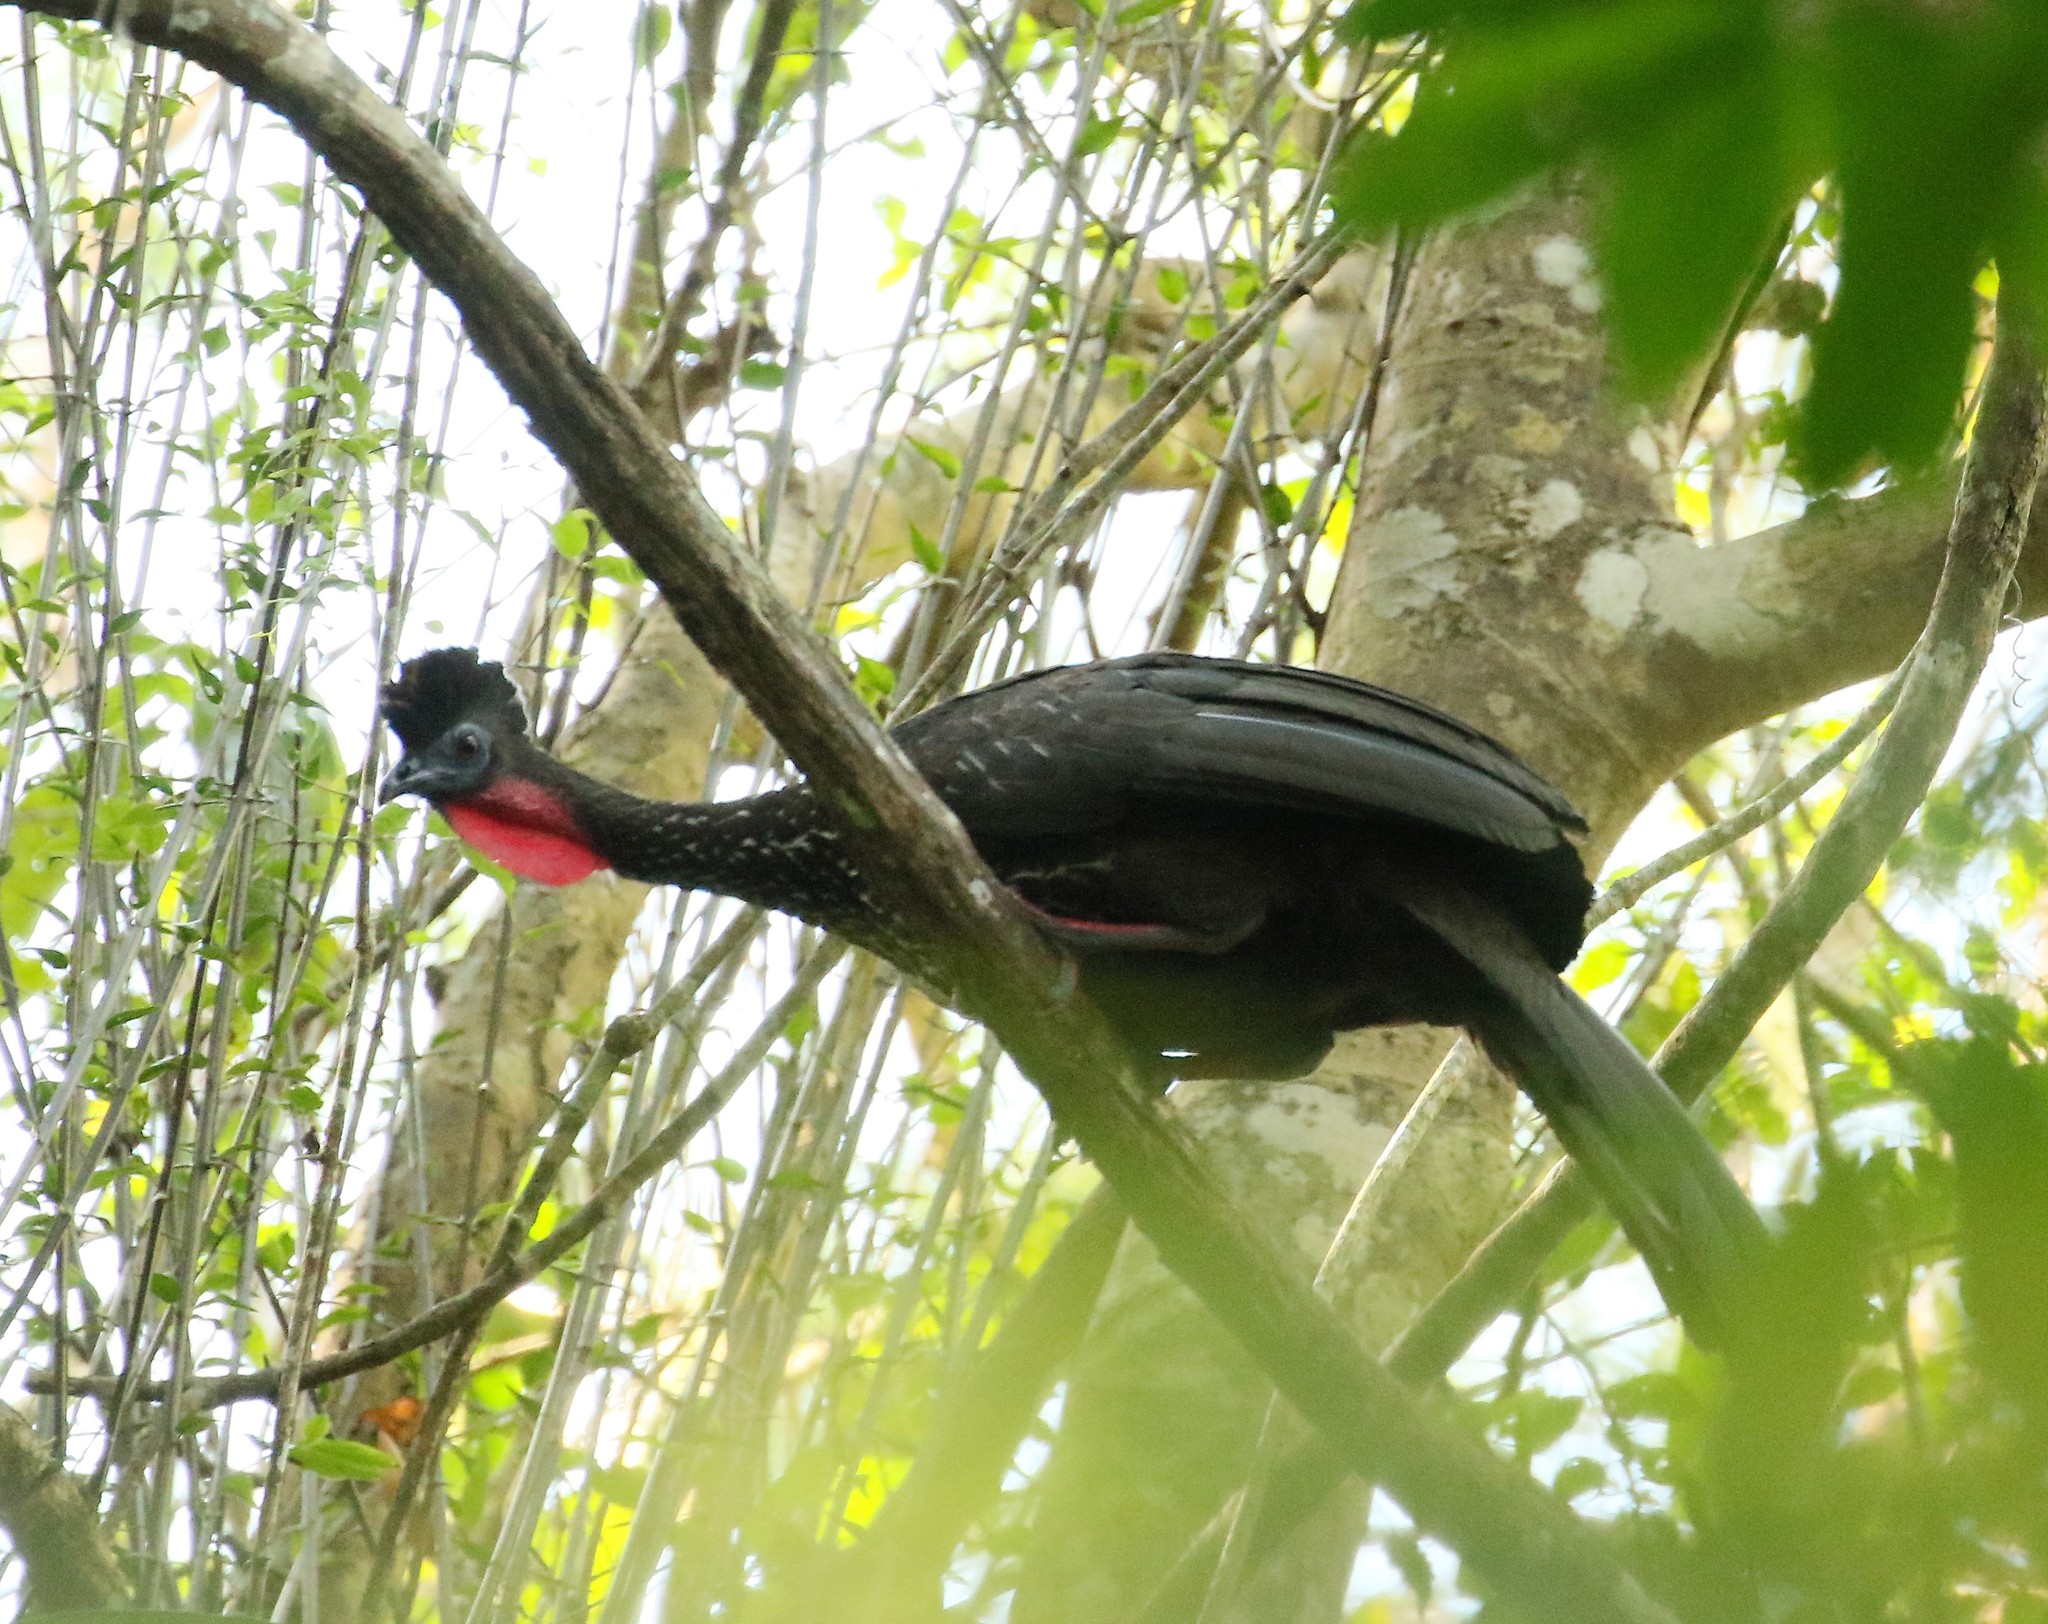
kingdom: Animalia
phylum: Chordata
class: Aves
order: Galliformes
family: Cracidae
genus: Penelope
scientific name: Penelope purpurascens
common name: Crested guan
